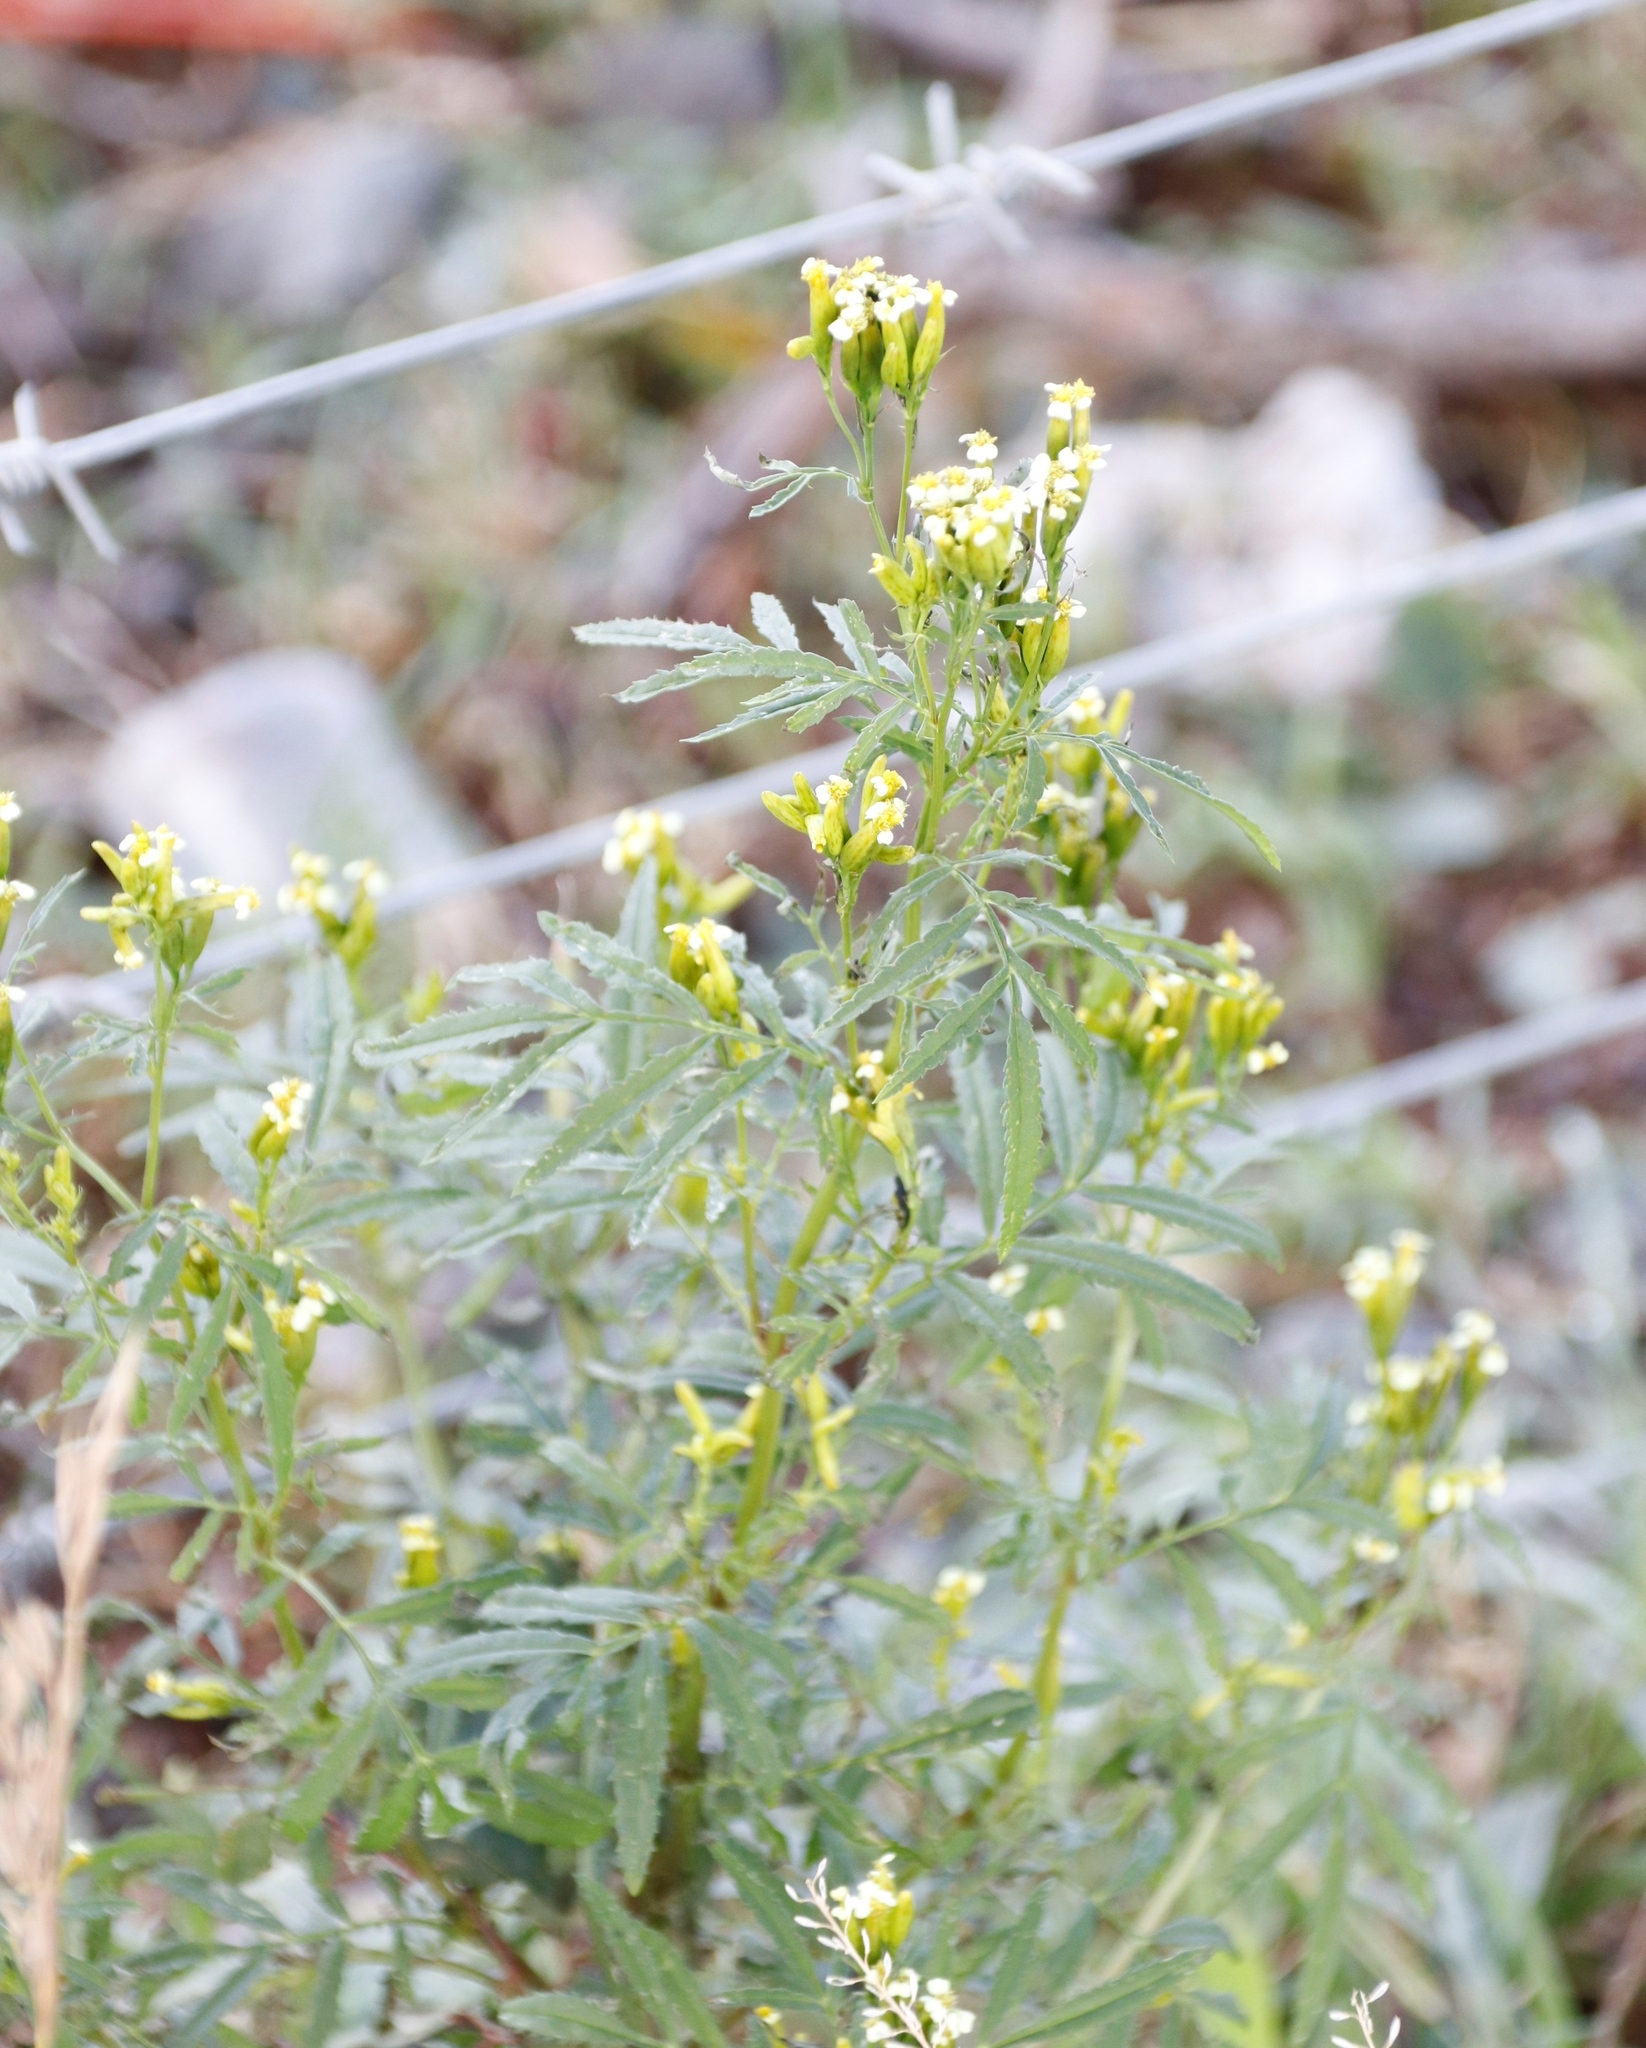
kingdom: Plantae
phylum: Tracheophyta
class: Magnoliopsida
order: Asterales
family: Asteraceae
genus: Tagetes
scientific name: Tagetes minuta
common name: Muster john henry
